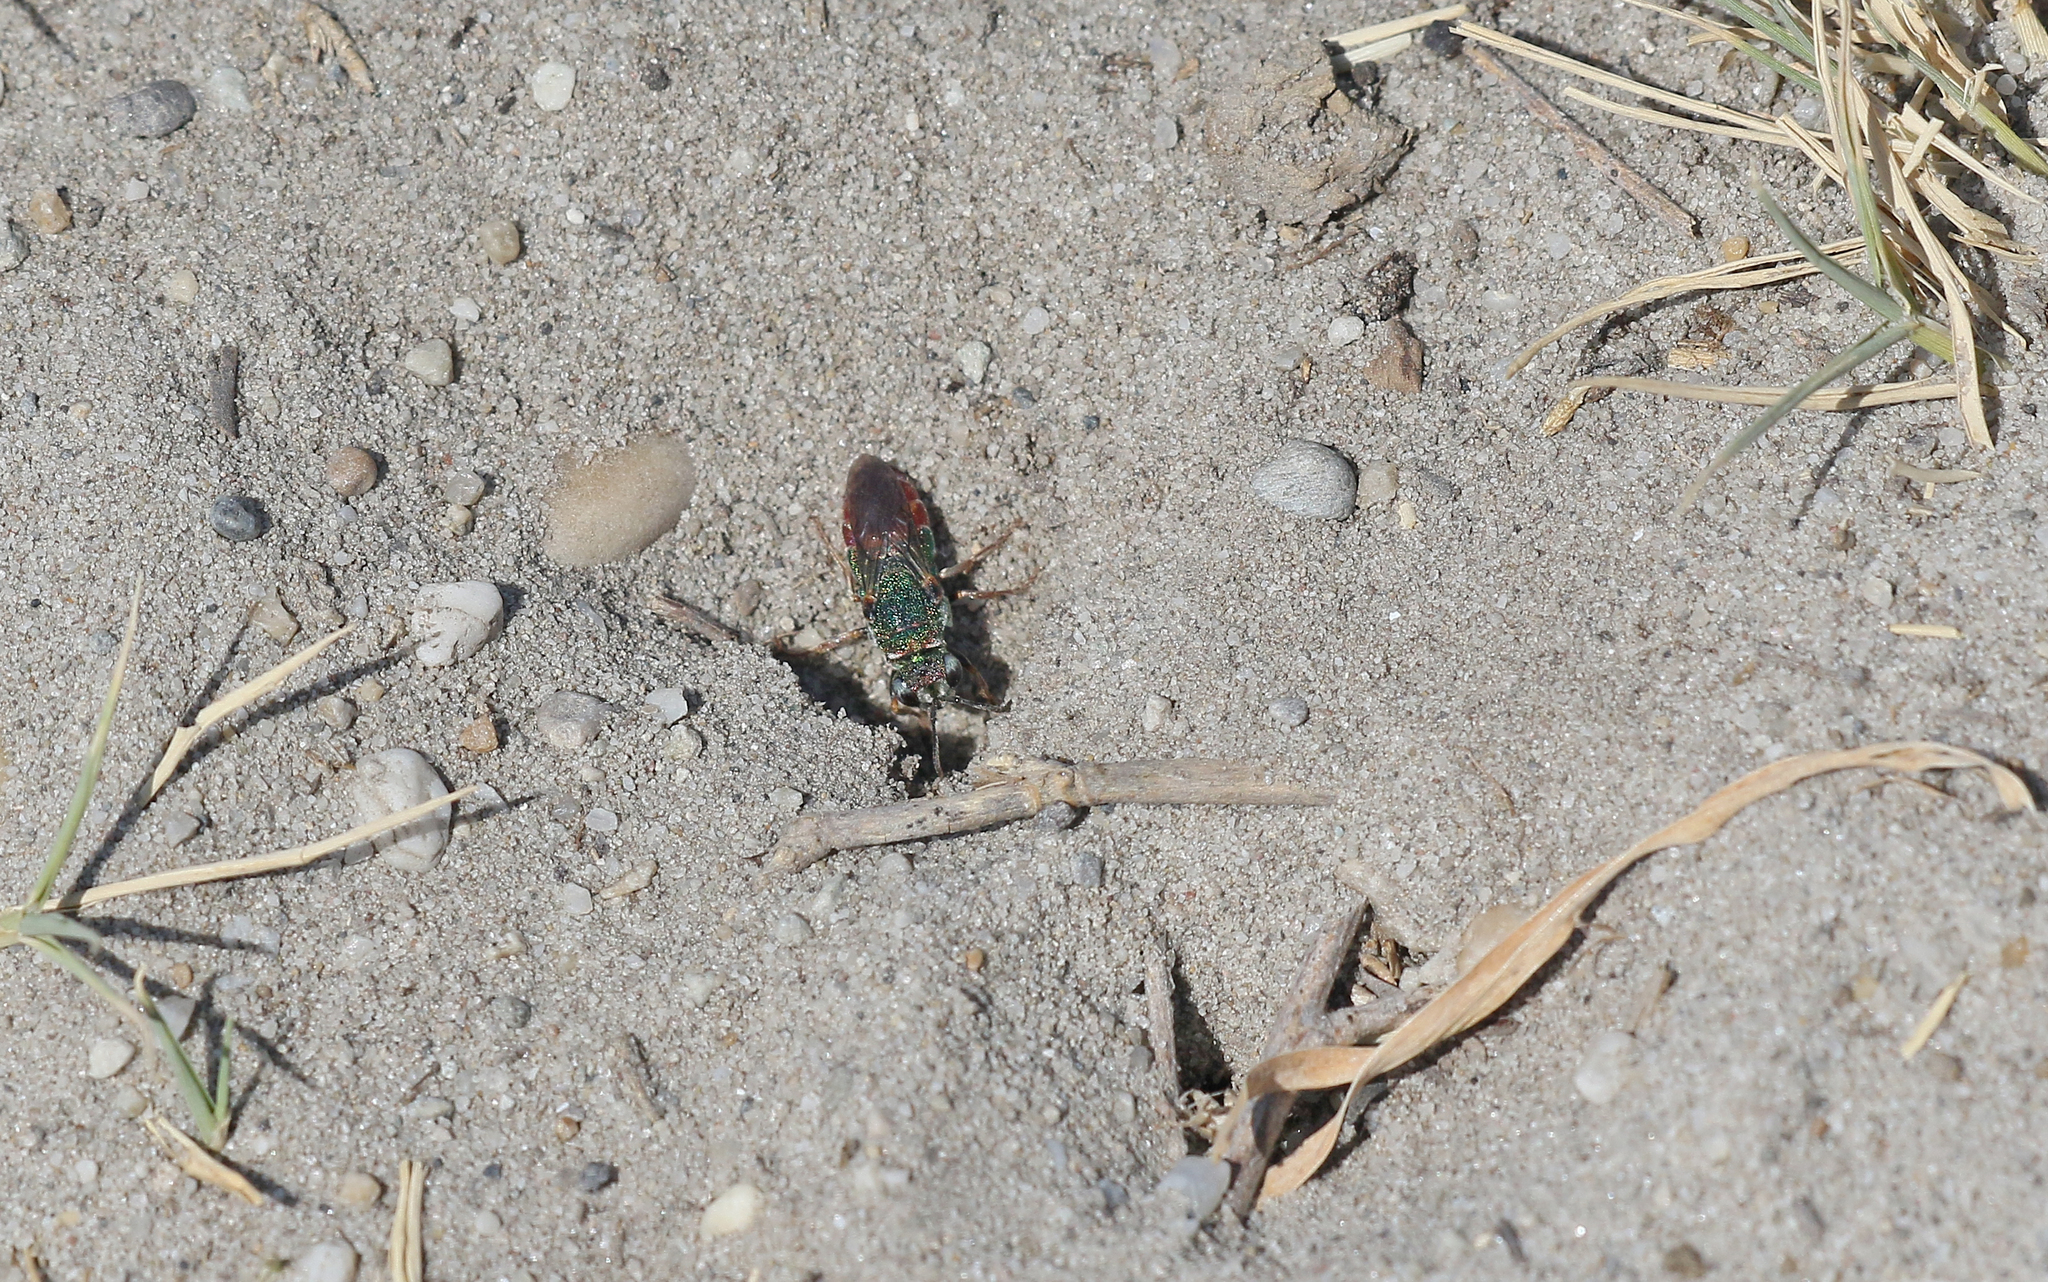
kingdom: Animalia
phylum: Arthropoda
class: Insecta
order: Hymenoptera
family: Chrysididae
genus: Parnopes
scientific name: Parnopes grandior
